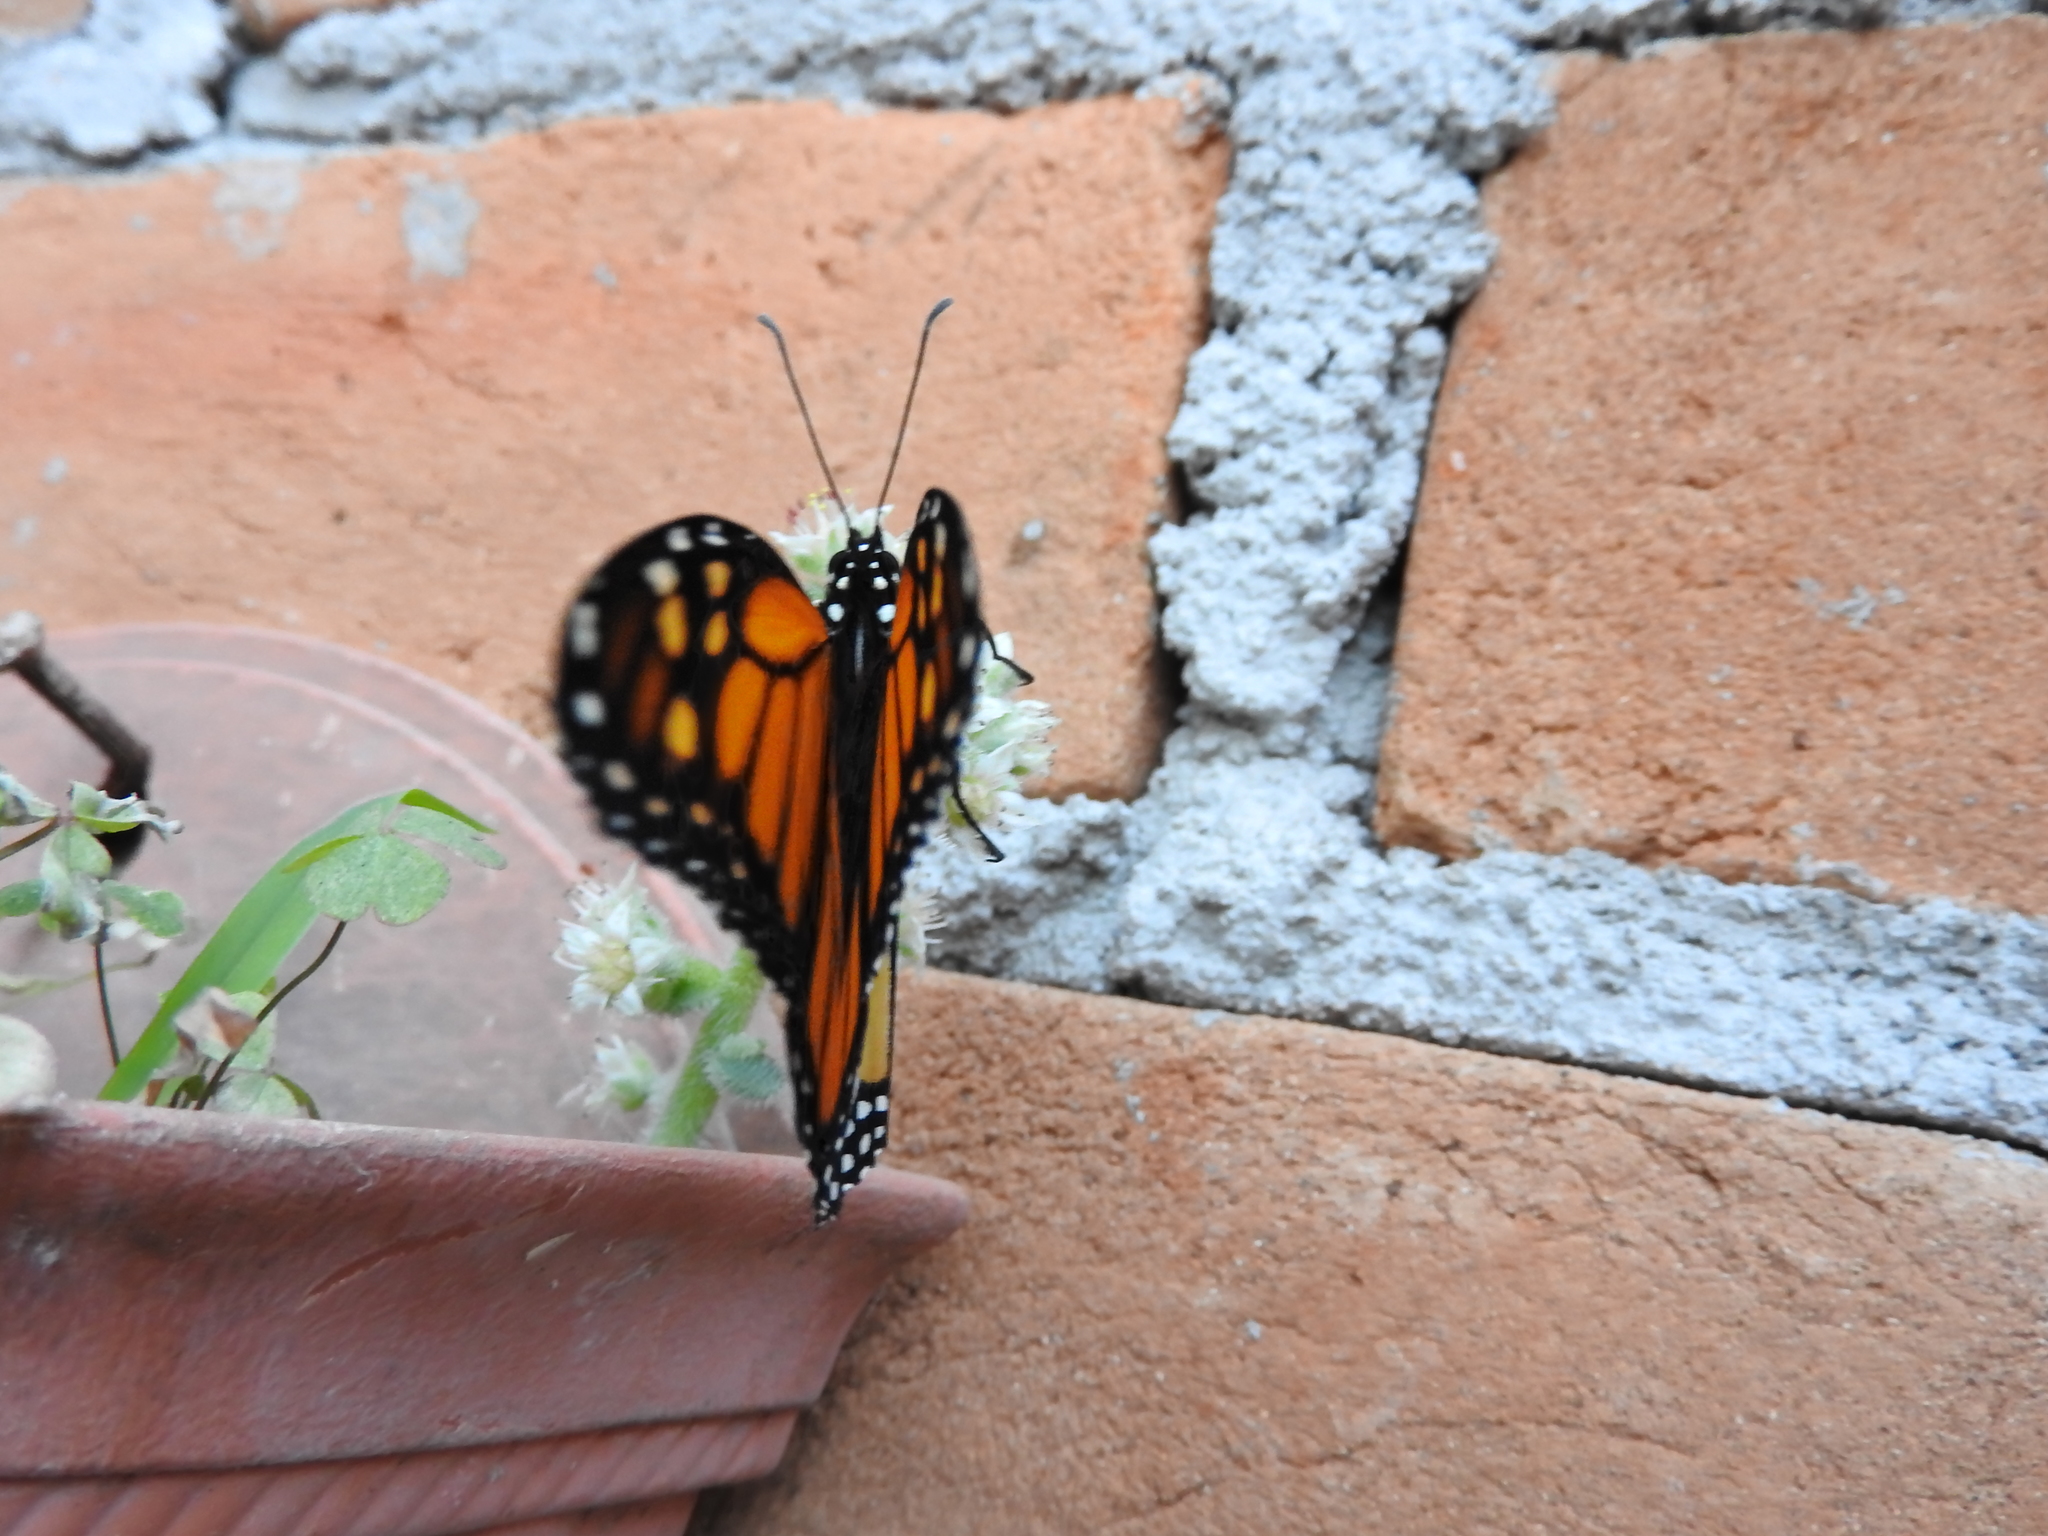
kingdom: Animalia
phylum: Arthropoda
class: Insecta
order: Lepidoptera
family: Nymphalidae
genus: Danaus
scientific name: Danaus plexippus
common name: Monarch
